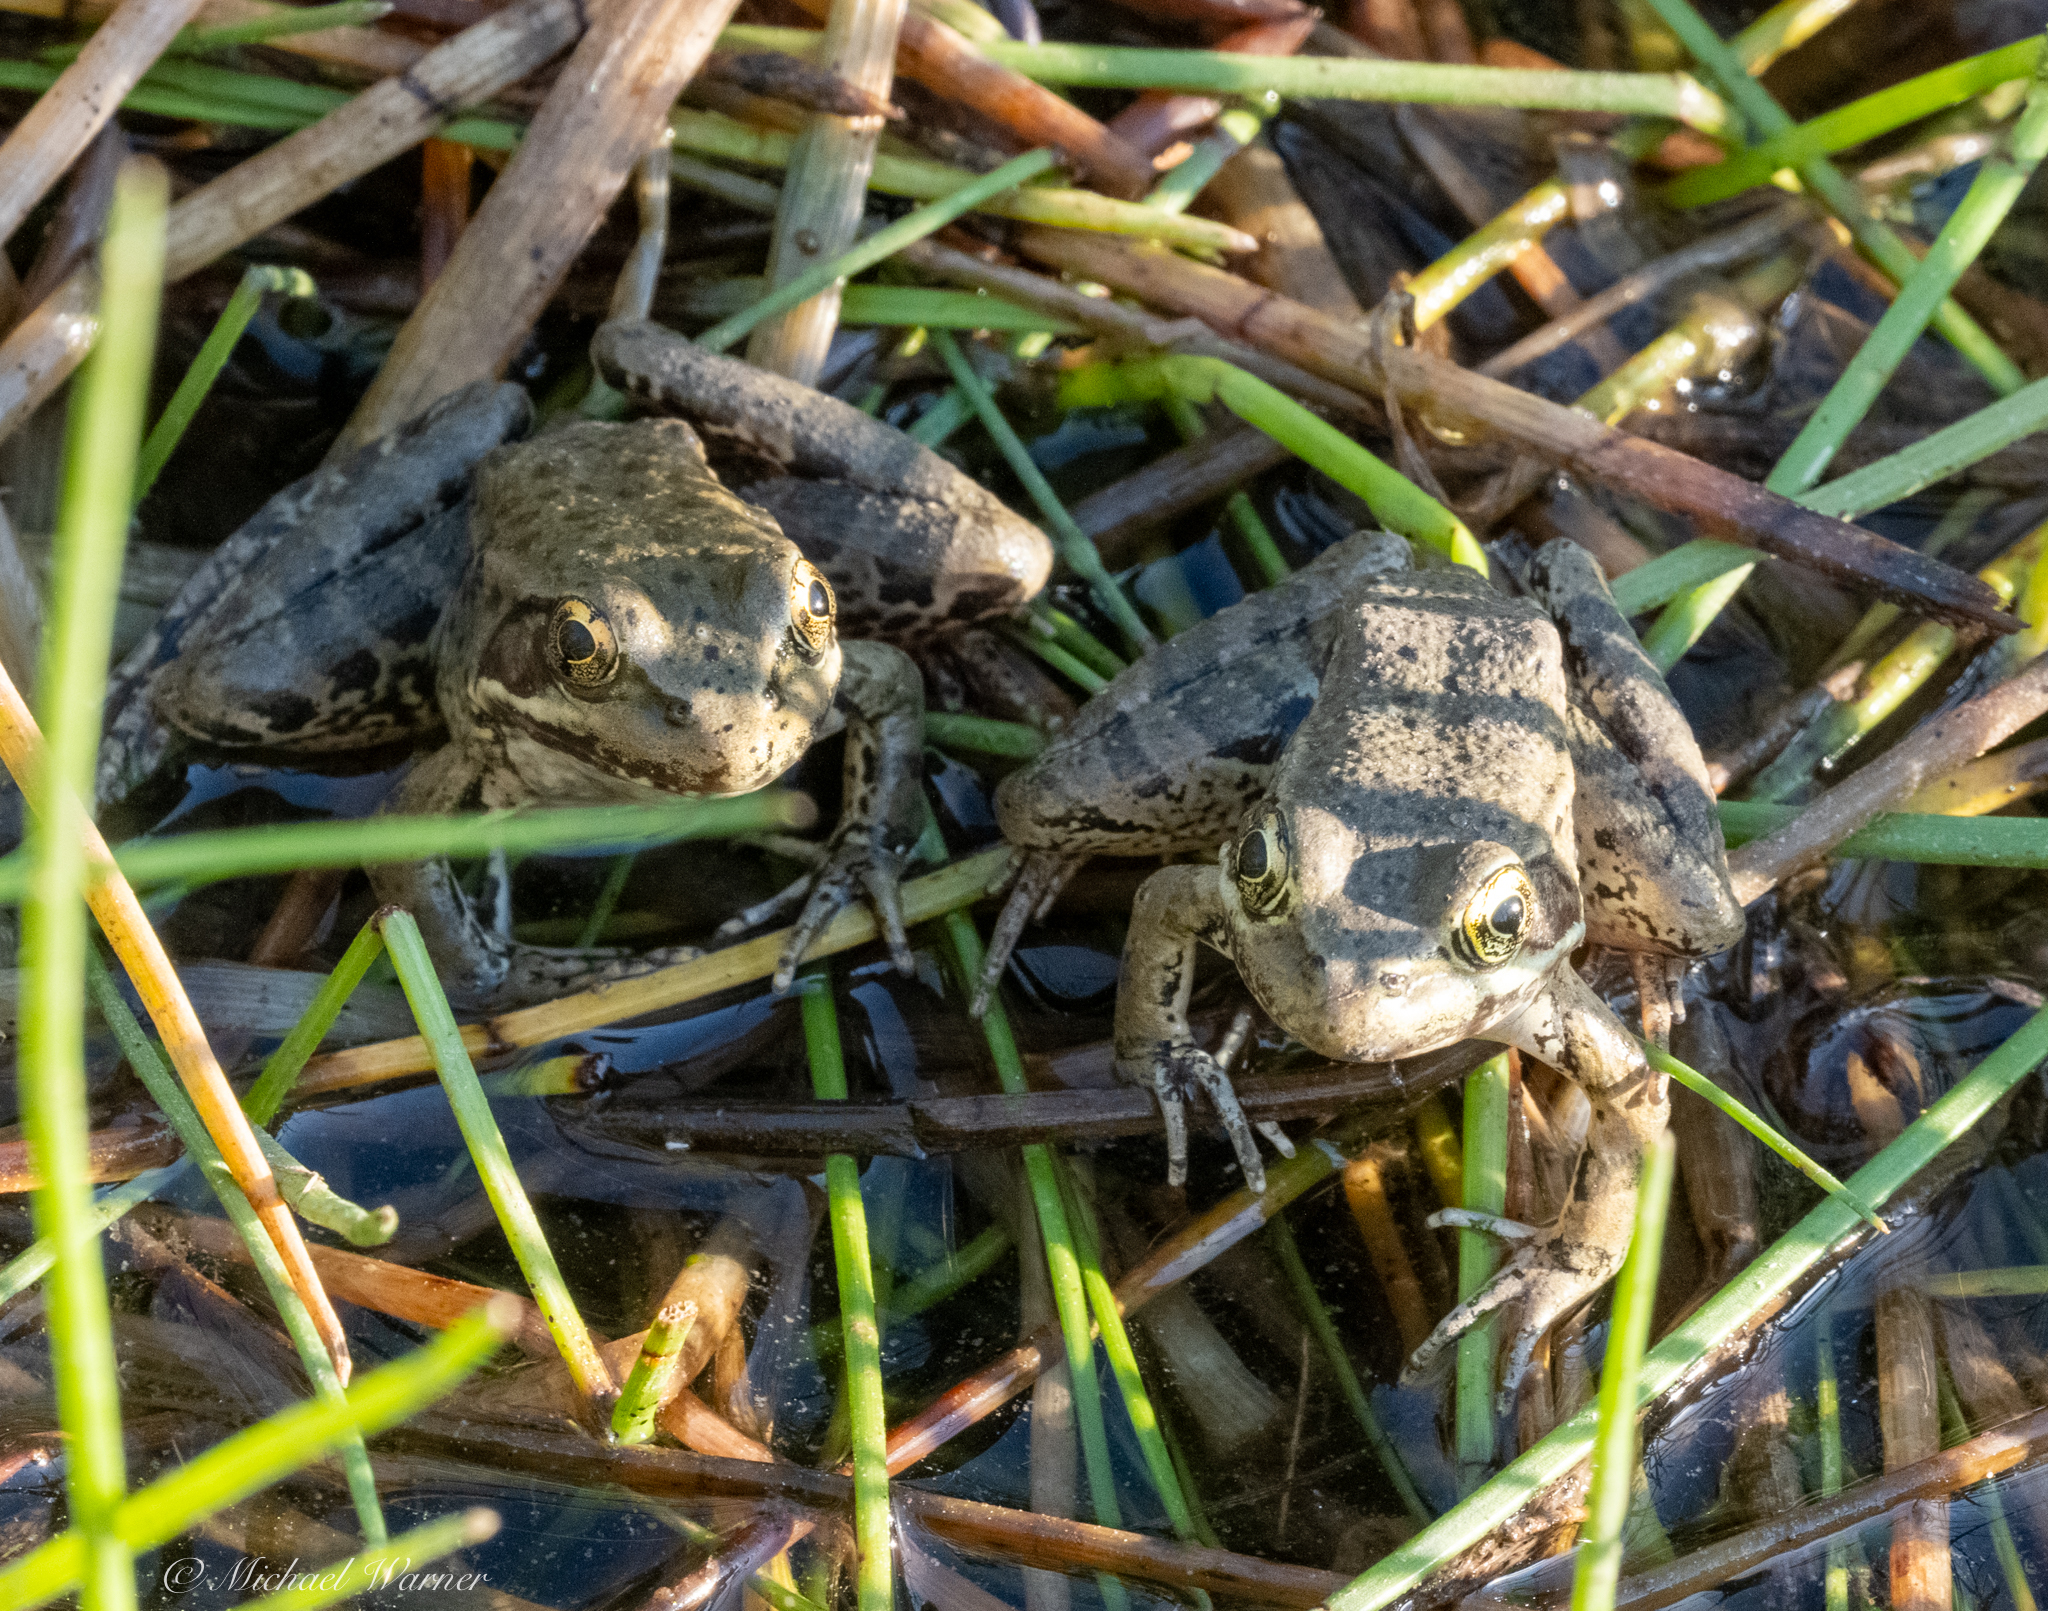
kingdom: Animalia
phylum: Chordata
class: Amphibia
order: Anura
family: Ranidae
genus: Rana
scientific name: Rana draytonii
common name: California red-legged frog
